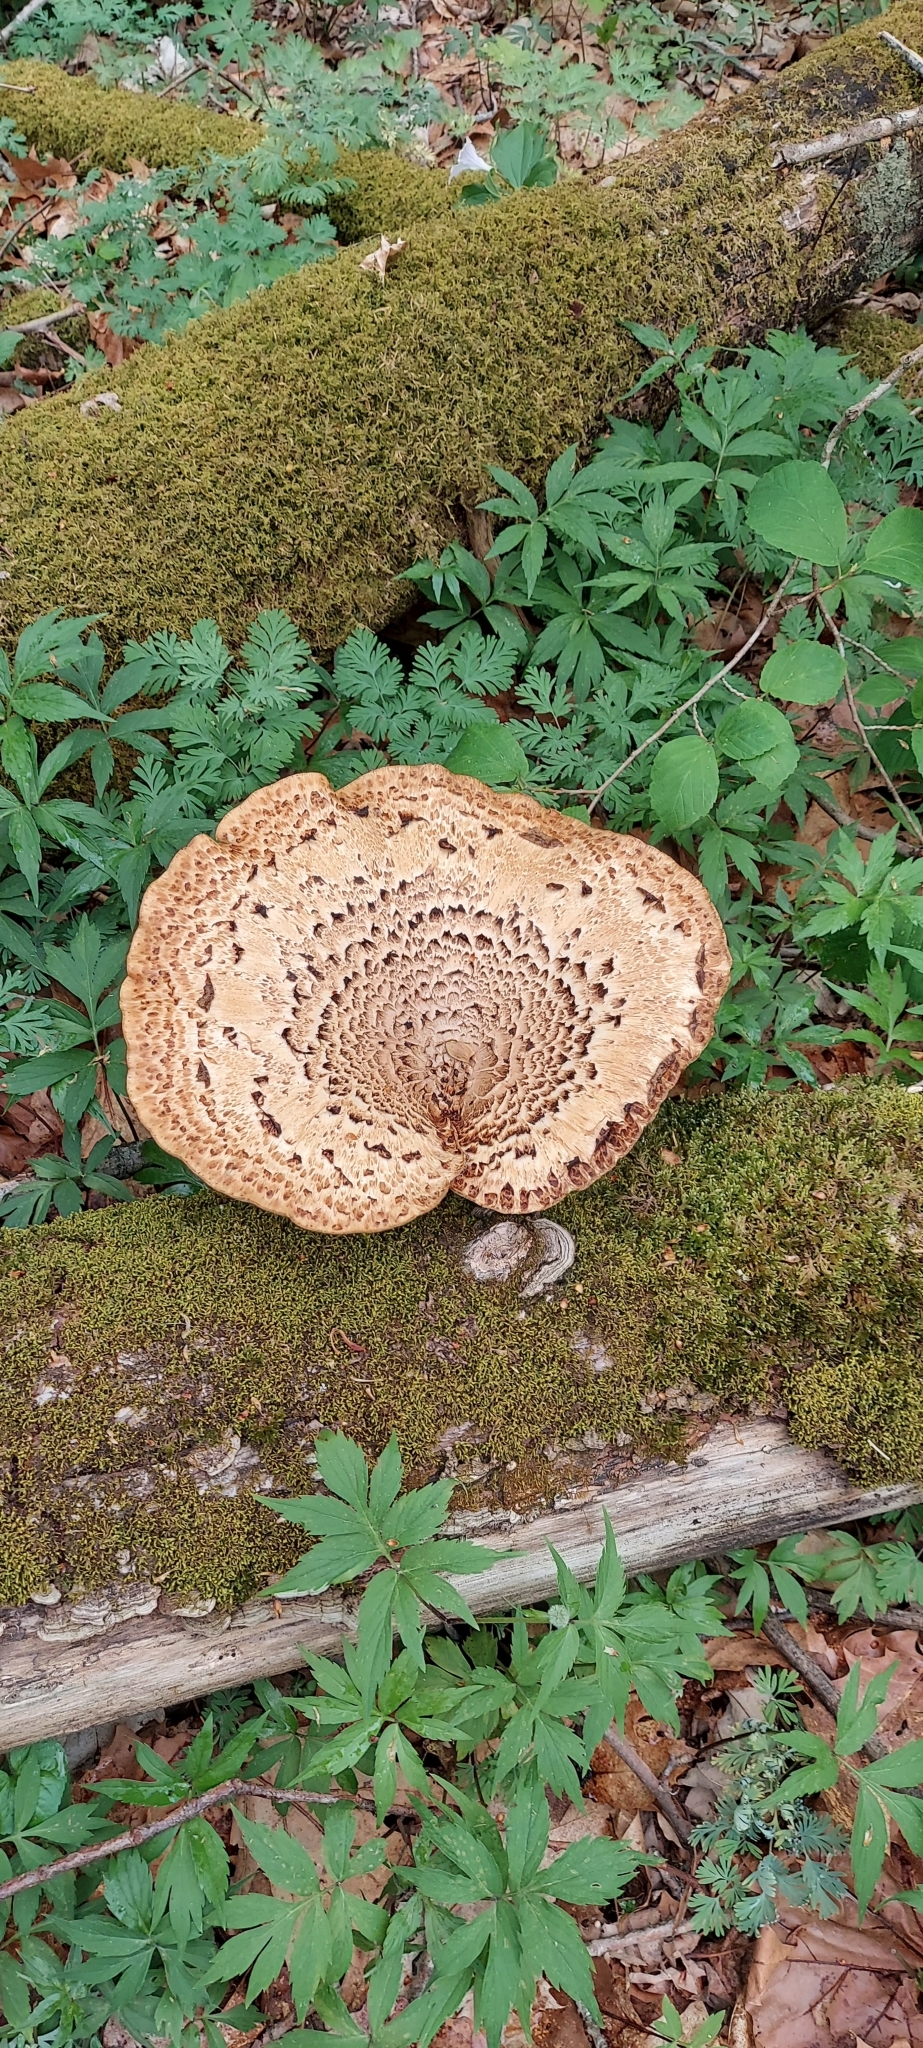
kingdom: Fungi
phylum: Basidiomycota
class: Agaricomycetes
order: Polyporales
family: Polyporaceae
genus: Cerioporus
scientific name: Cerioporus squamosus
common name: Dryad's saddle
